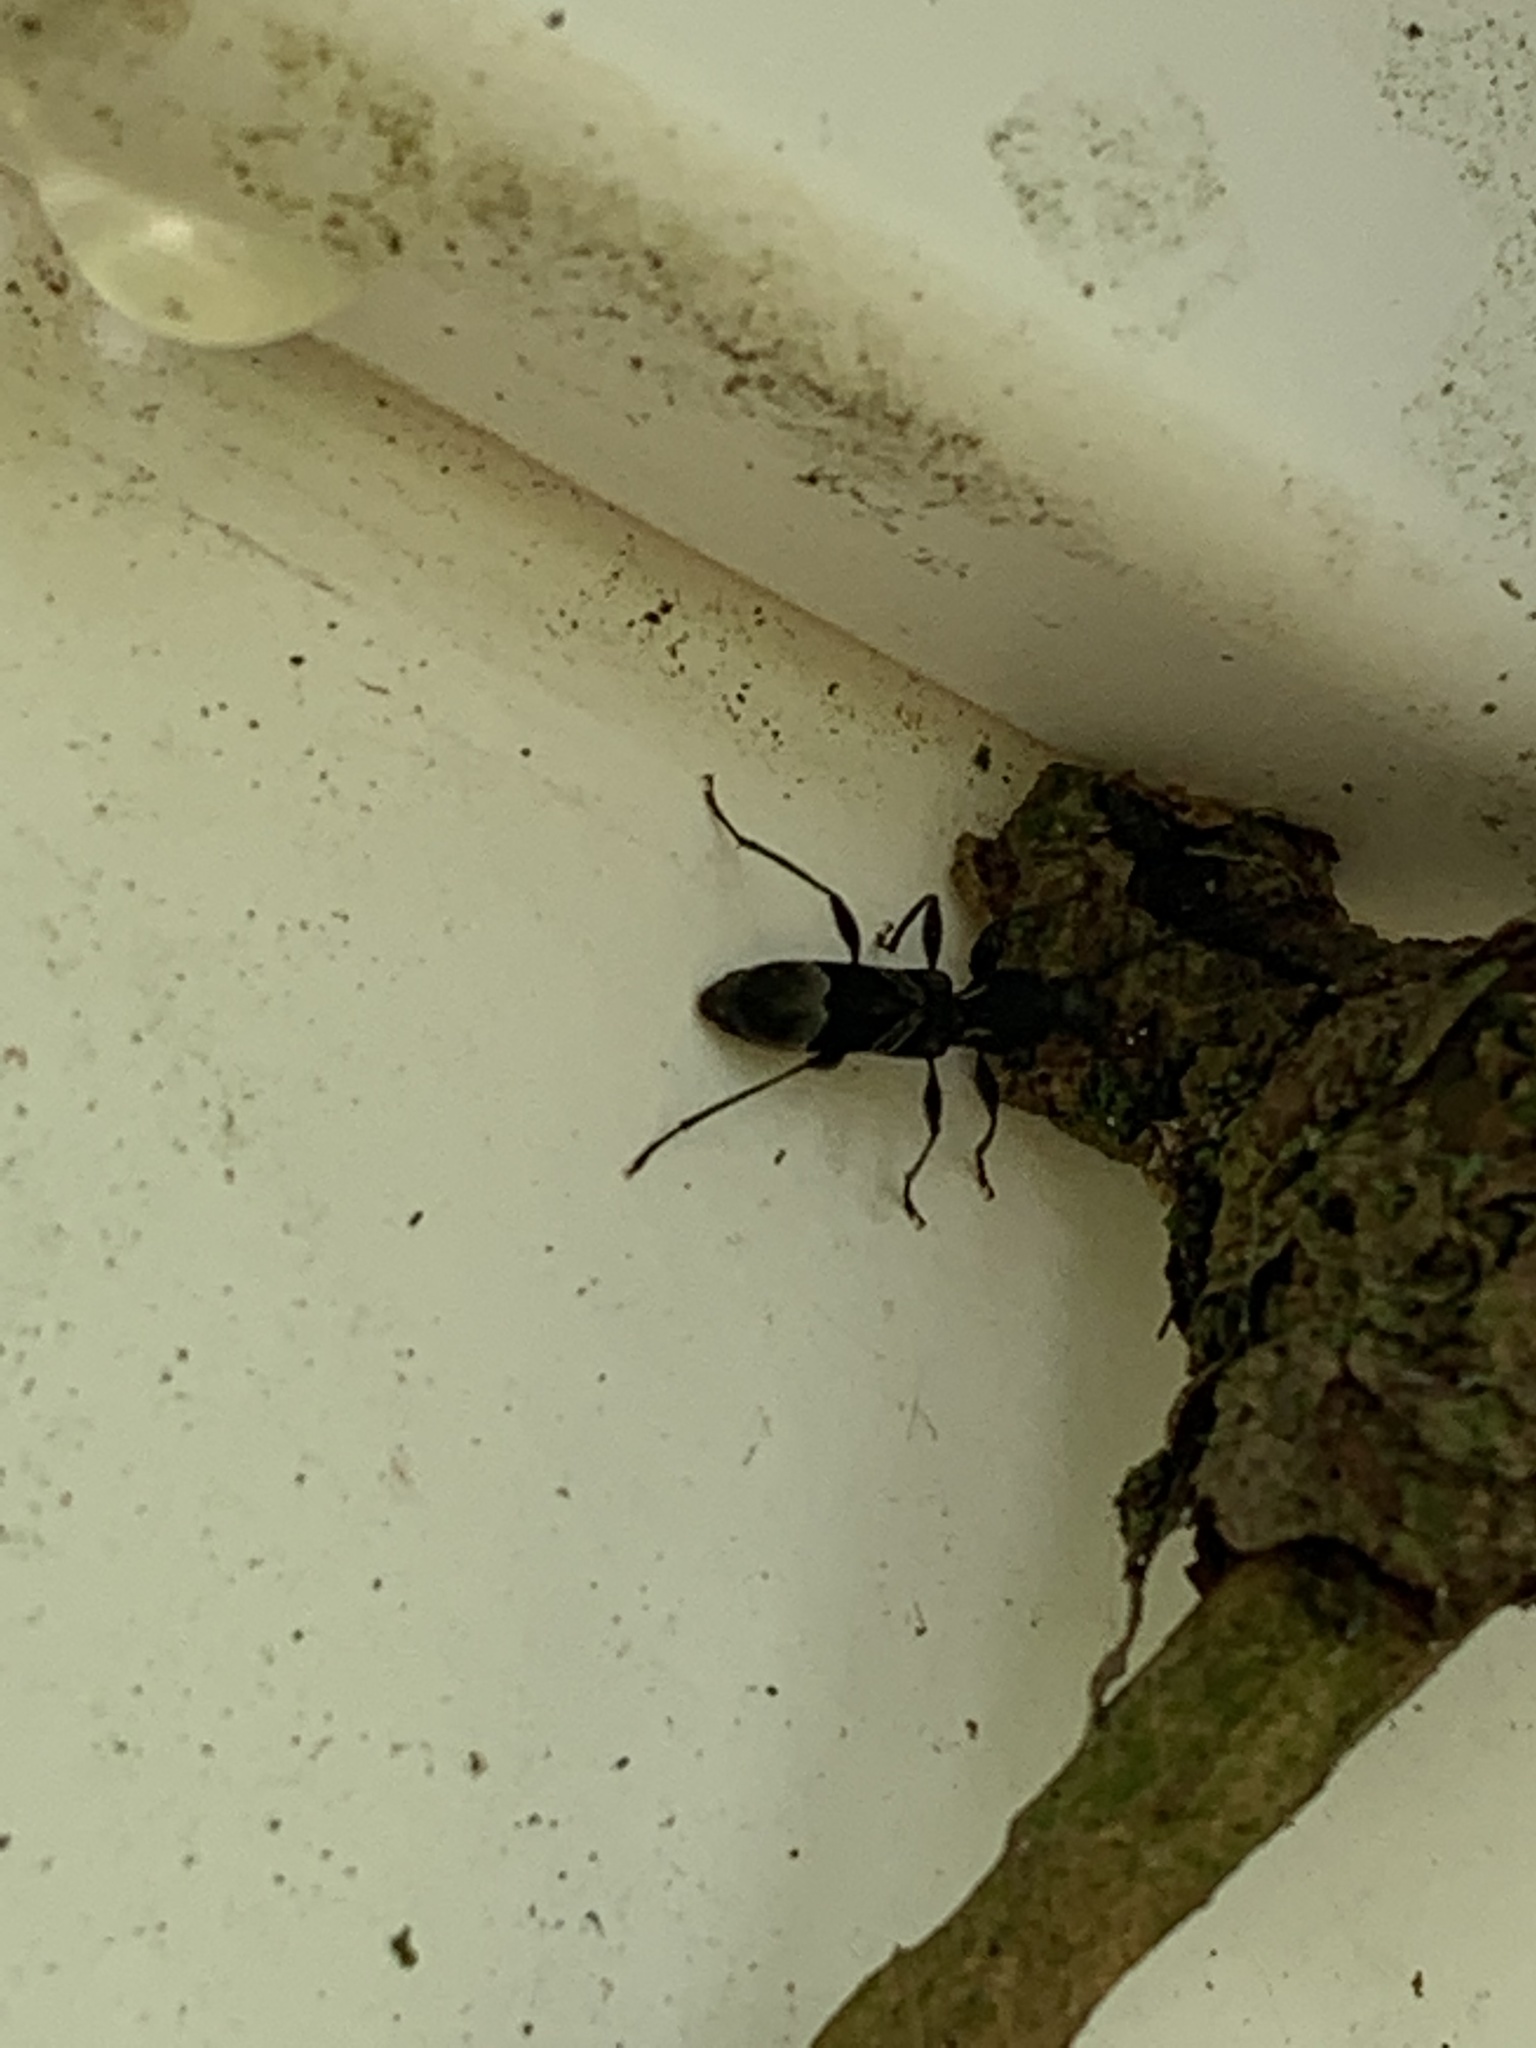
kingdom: Animalia
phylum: Arthropoda
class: Insecta
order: Coleoptera
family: Cerambycidae
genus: Tilloclytus
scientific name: Tilloclytus geminatus
